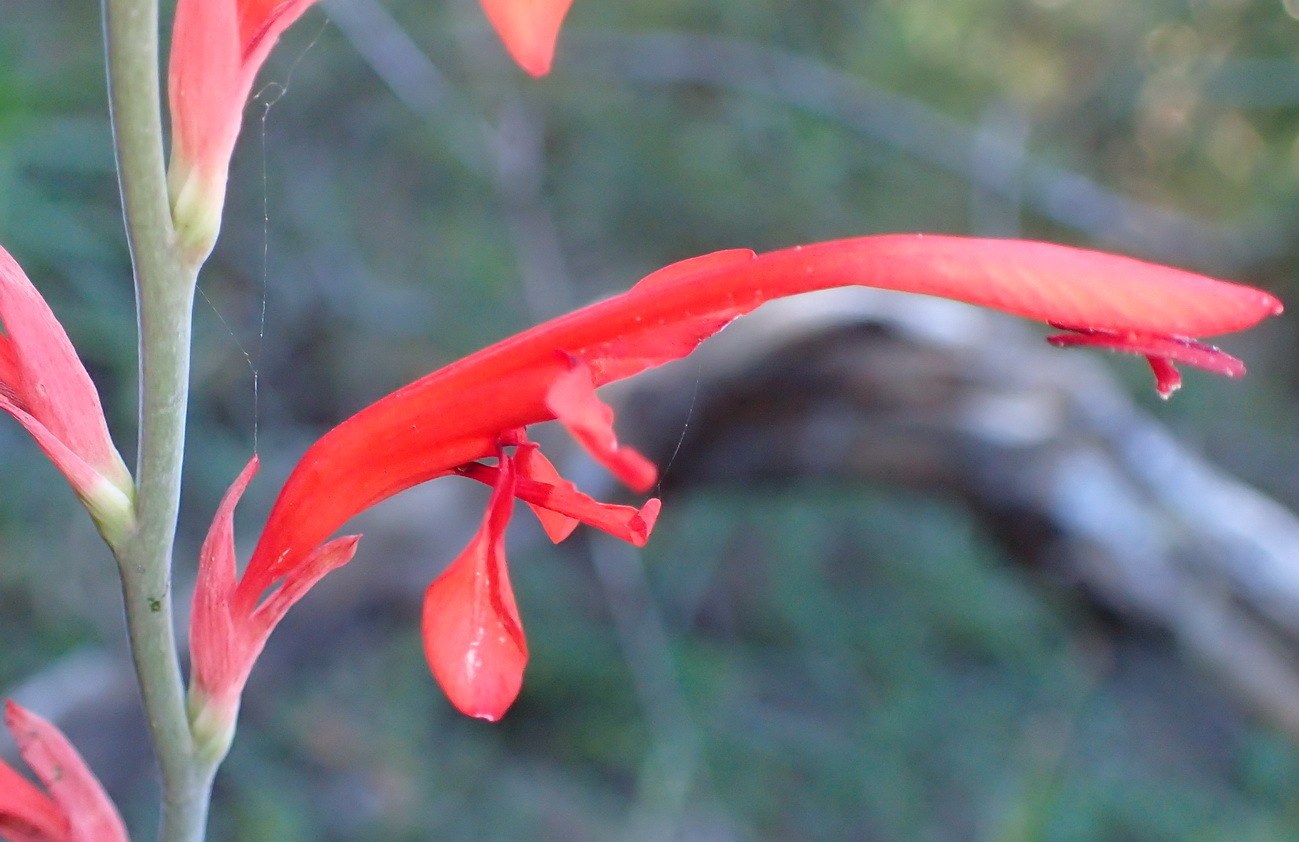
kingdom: Plantae
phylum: Tracheophyta
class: Liliopsida
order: Asparagales
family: Iridaceae
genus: Tritoniopsis
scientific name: Tritoniopsis caffra
